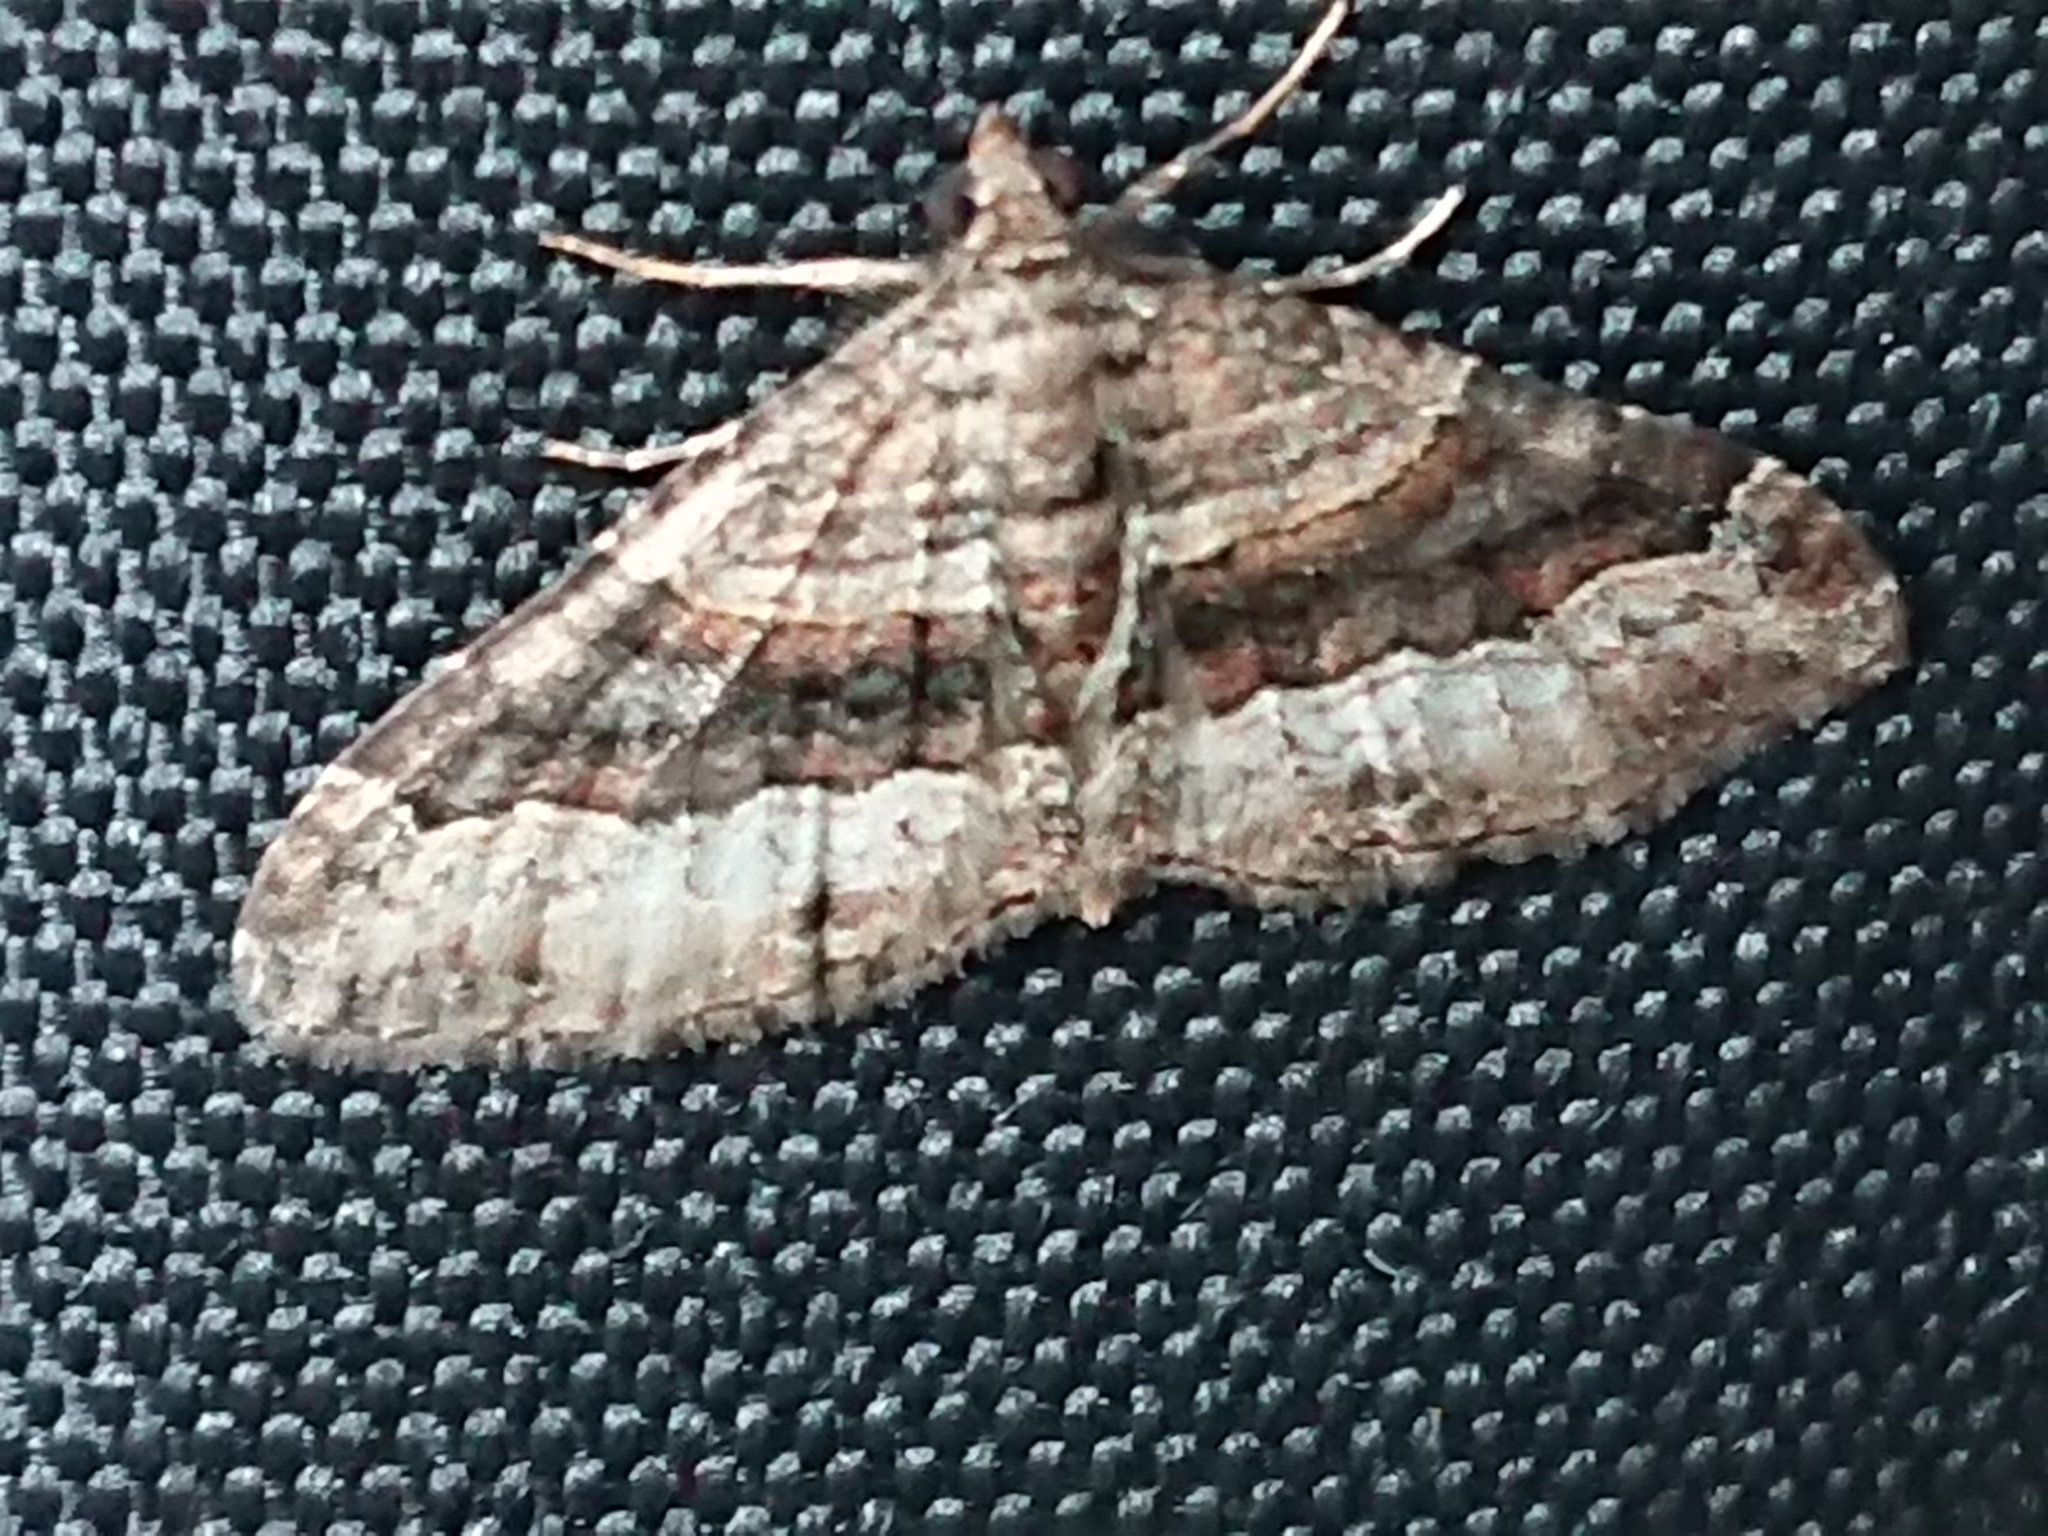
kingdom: Animalia
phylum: Arthropoda
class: Insecta
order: Lepidoptera
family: Geometridae
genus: Epyaxa
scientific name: Epyaxa lucidata
